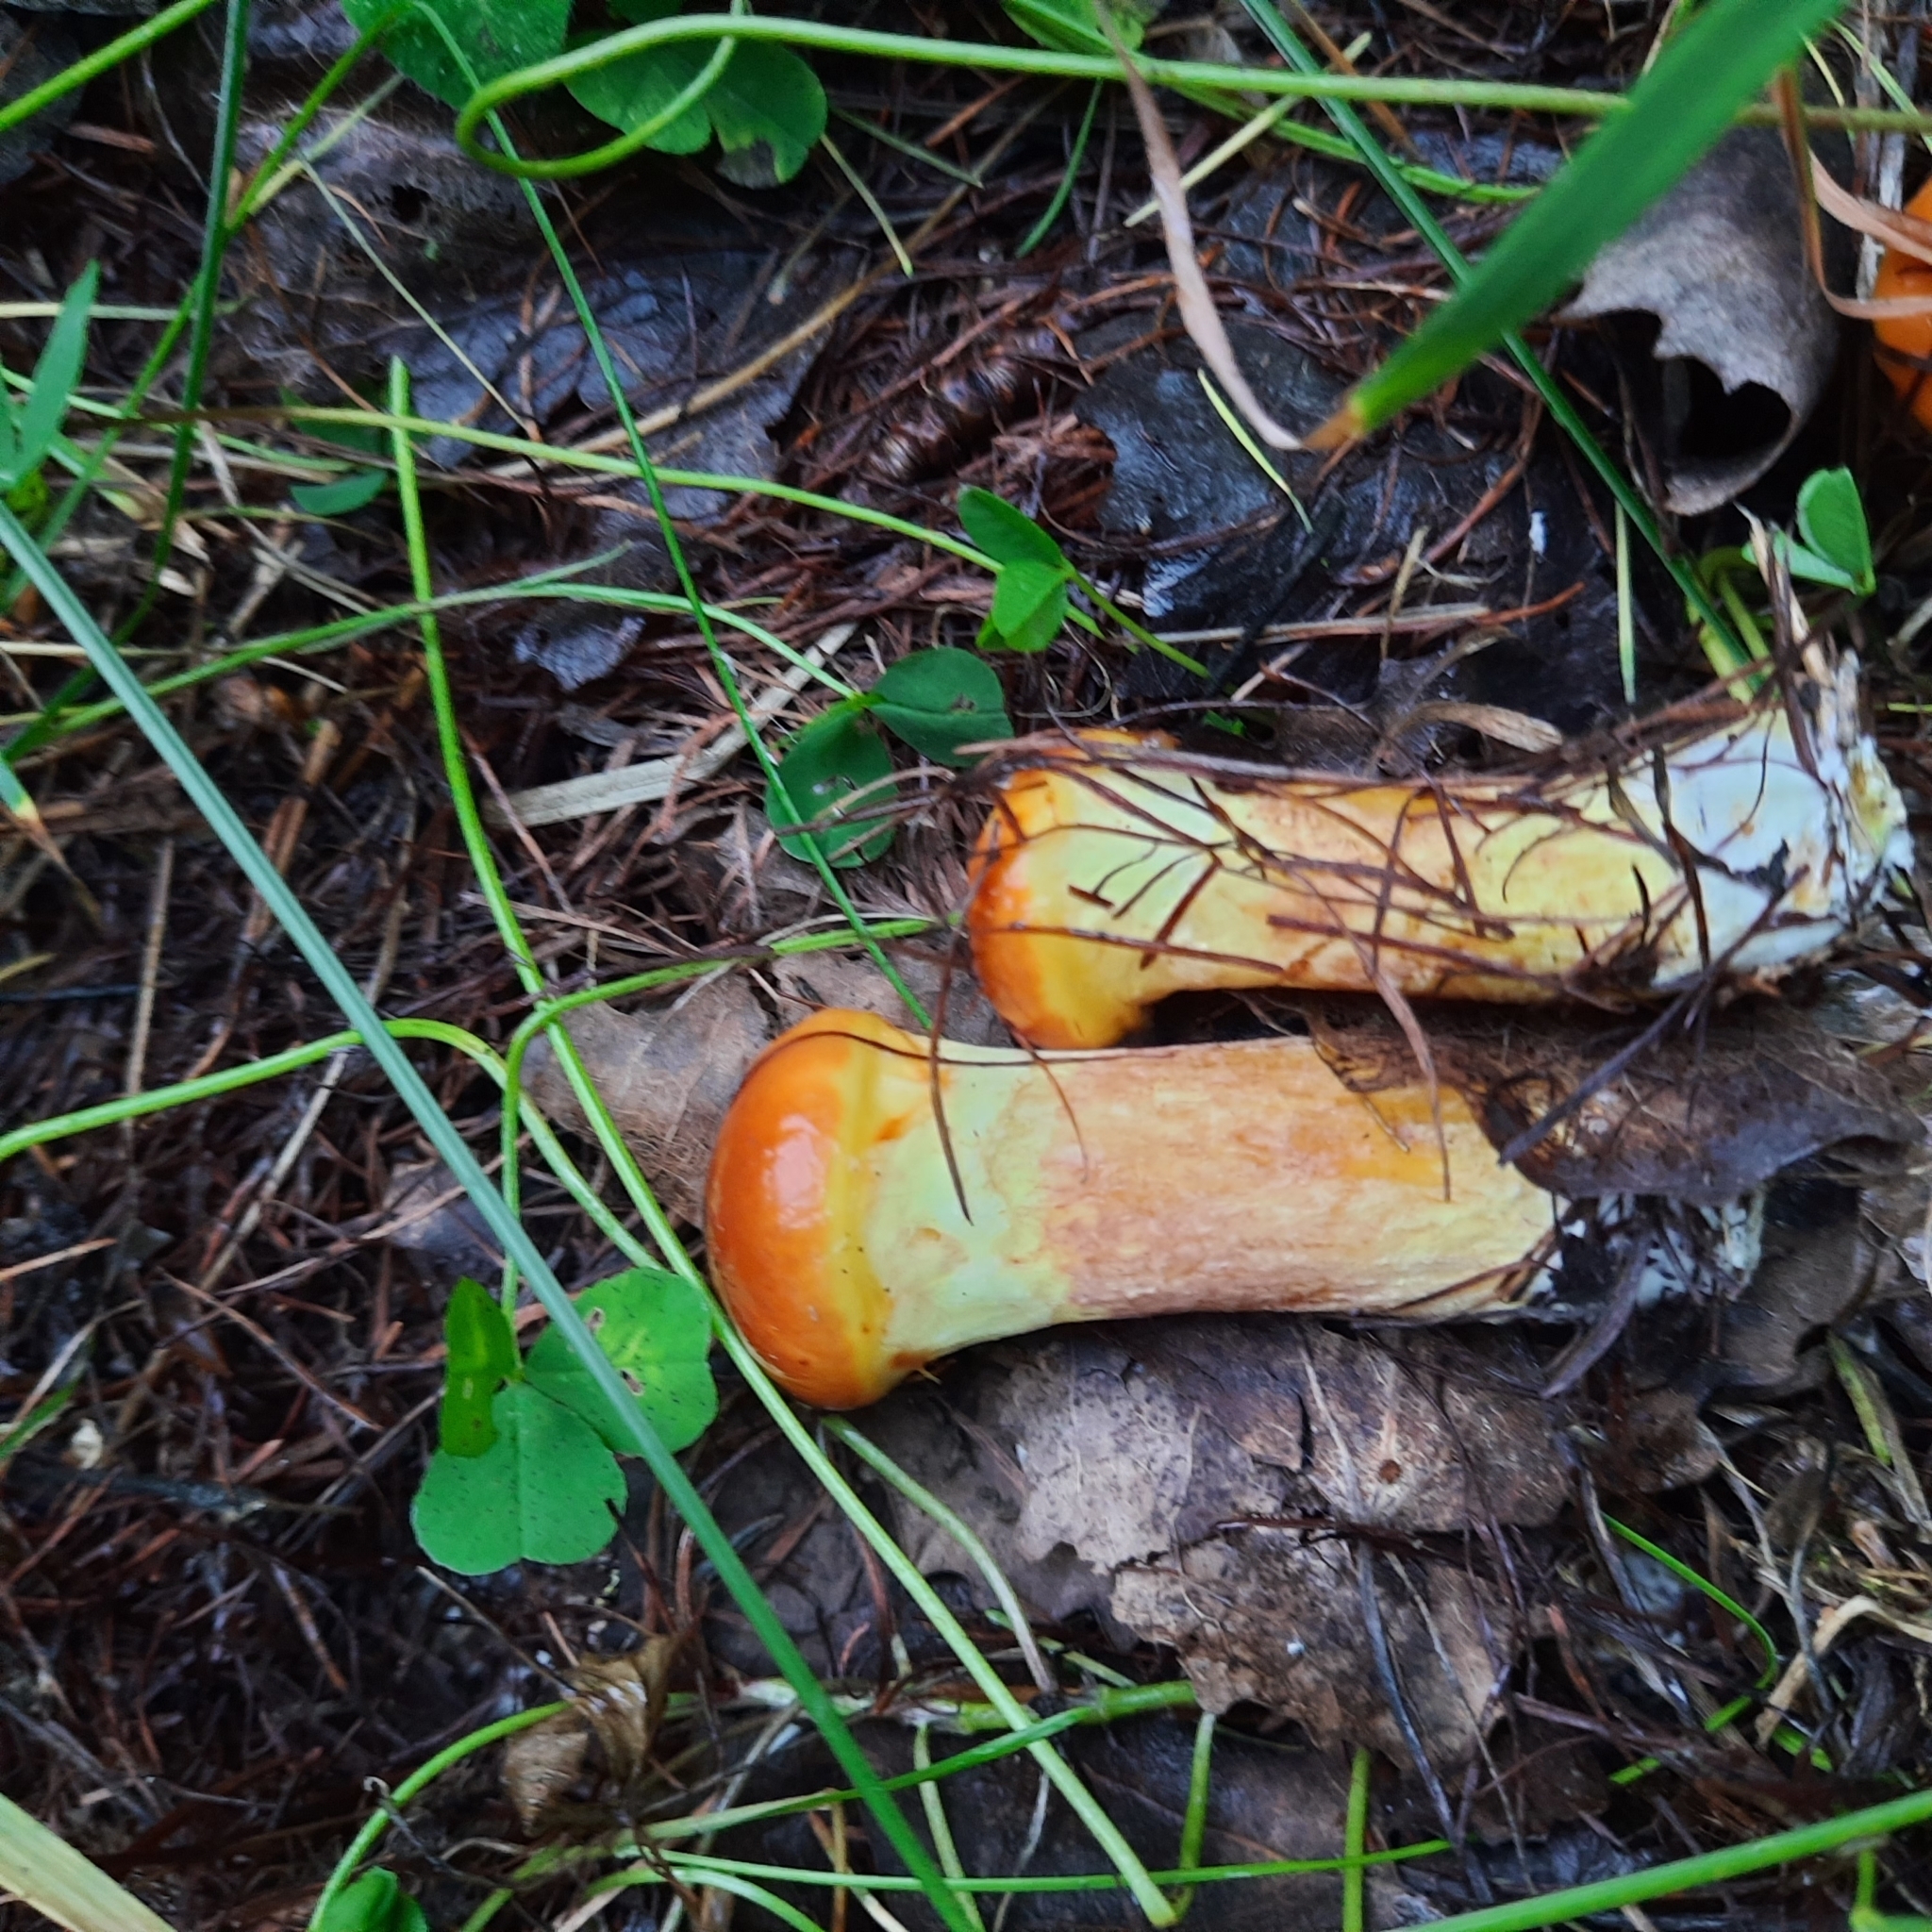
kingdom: Fungi
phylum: Basidiomycota
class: Agaricomycetes
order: Boletales
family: Suillaceae
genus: Suillus
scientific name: Suillus grevillei
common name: Larch bolete
